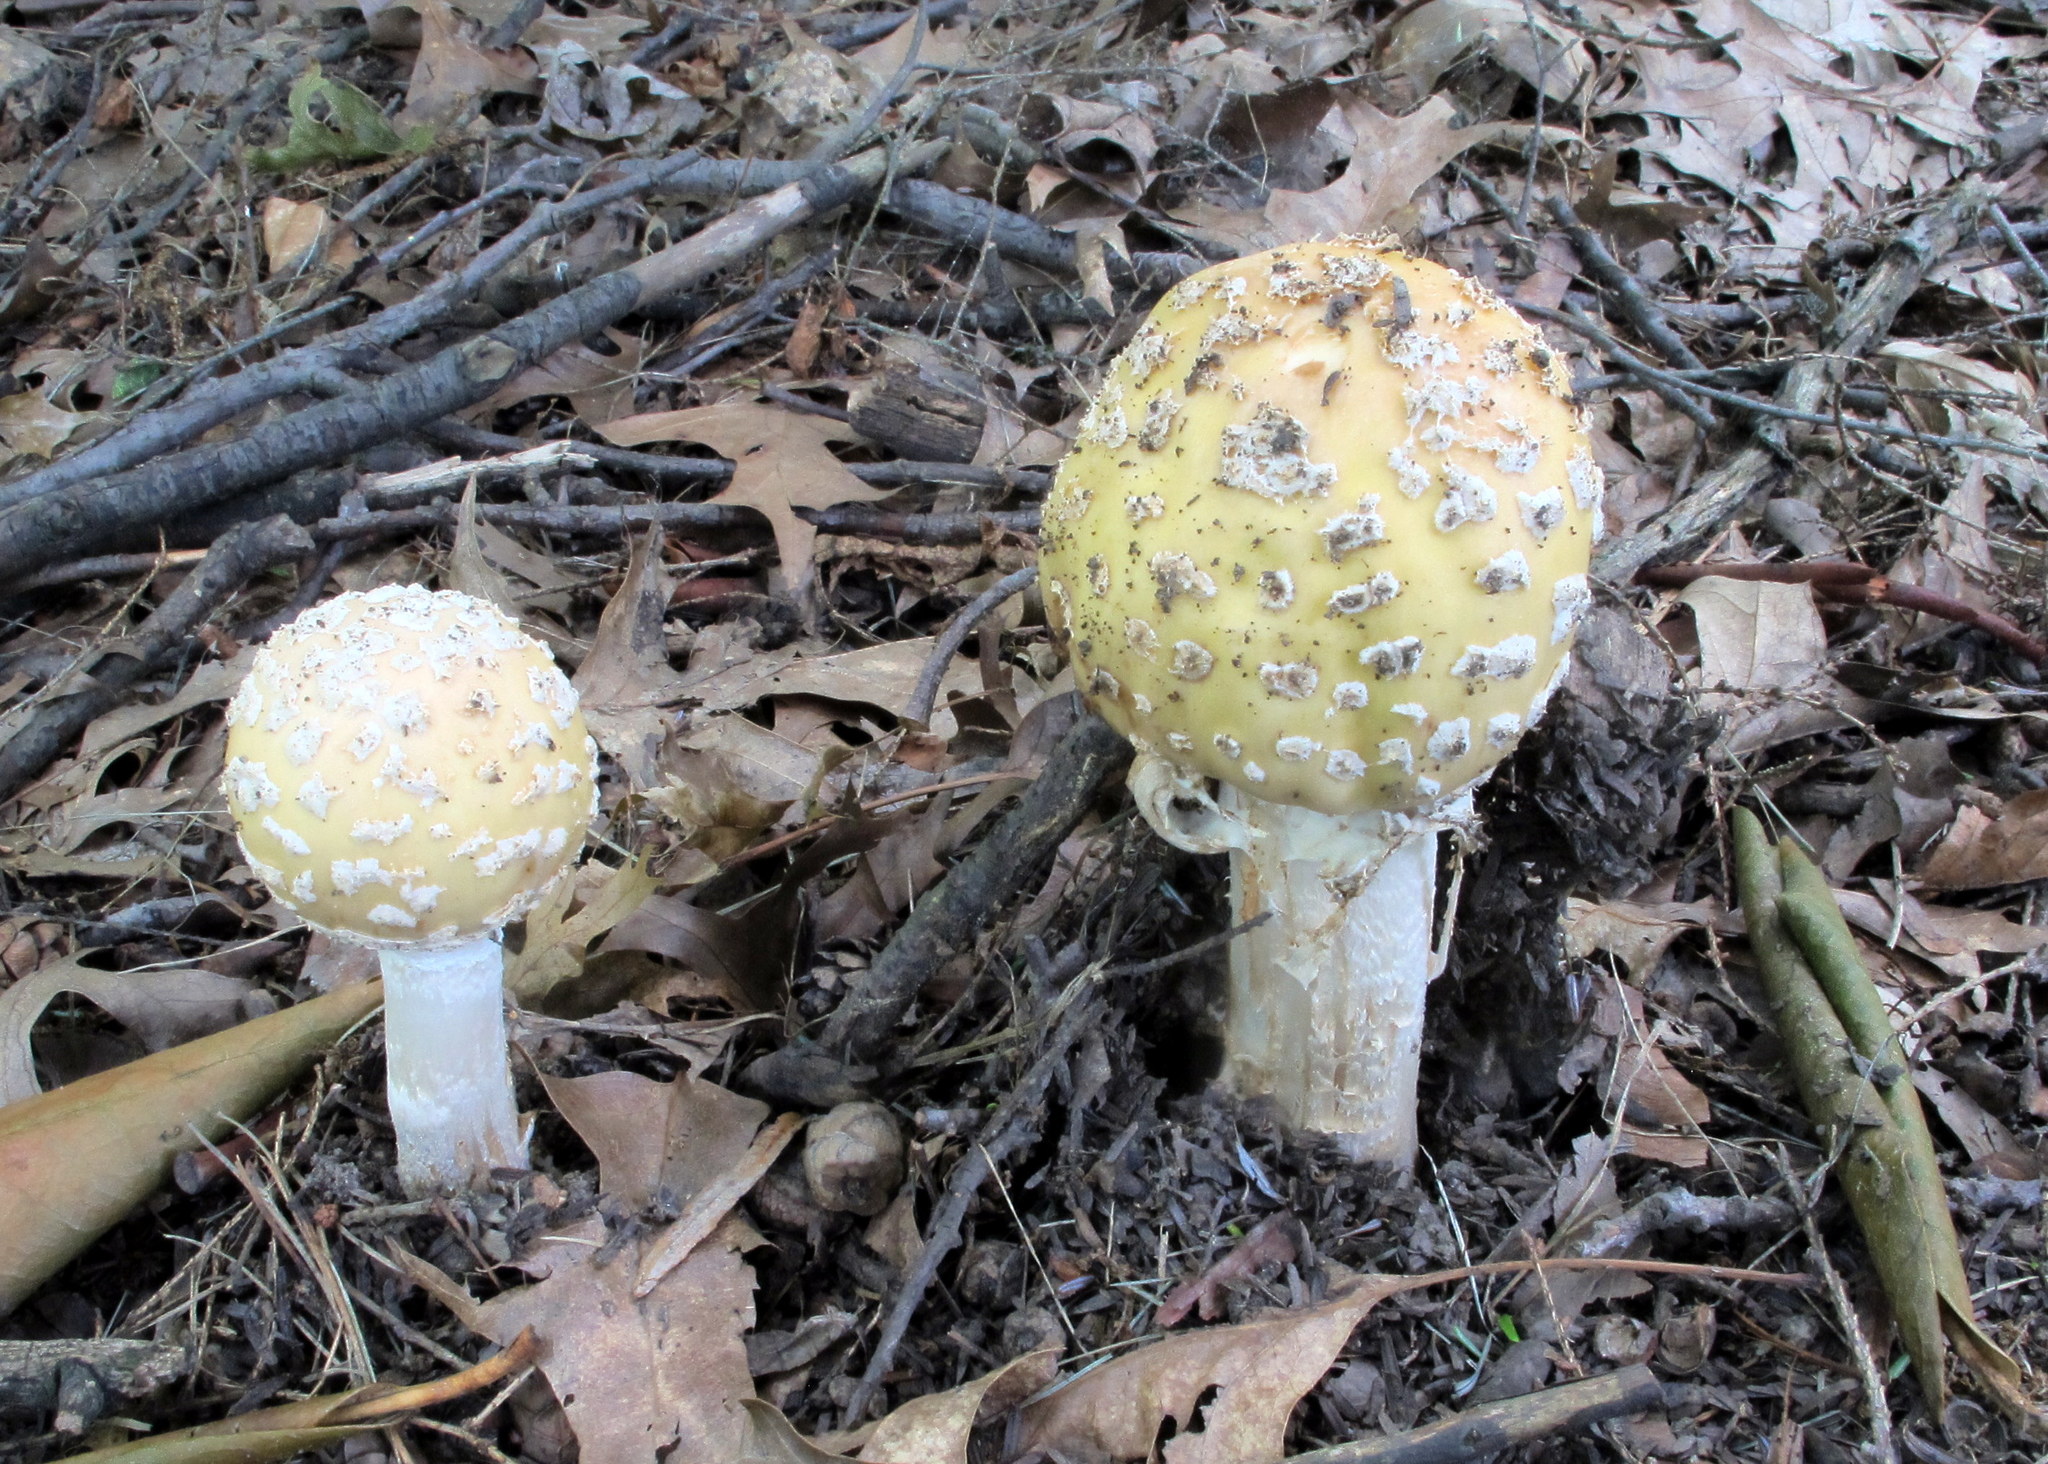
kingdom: Fungi
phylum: Basidiomycota
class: Agaricomycetes
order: Agaricales
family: Amanitaceae
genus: Amanita
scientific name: Amanita velatipes
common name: Great funnel-veil amanita
